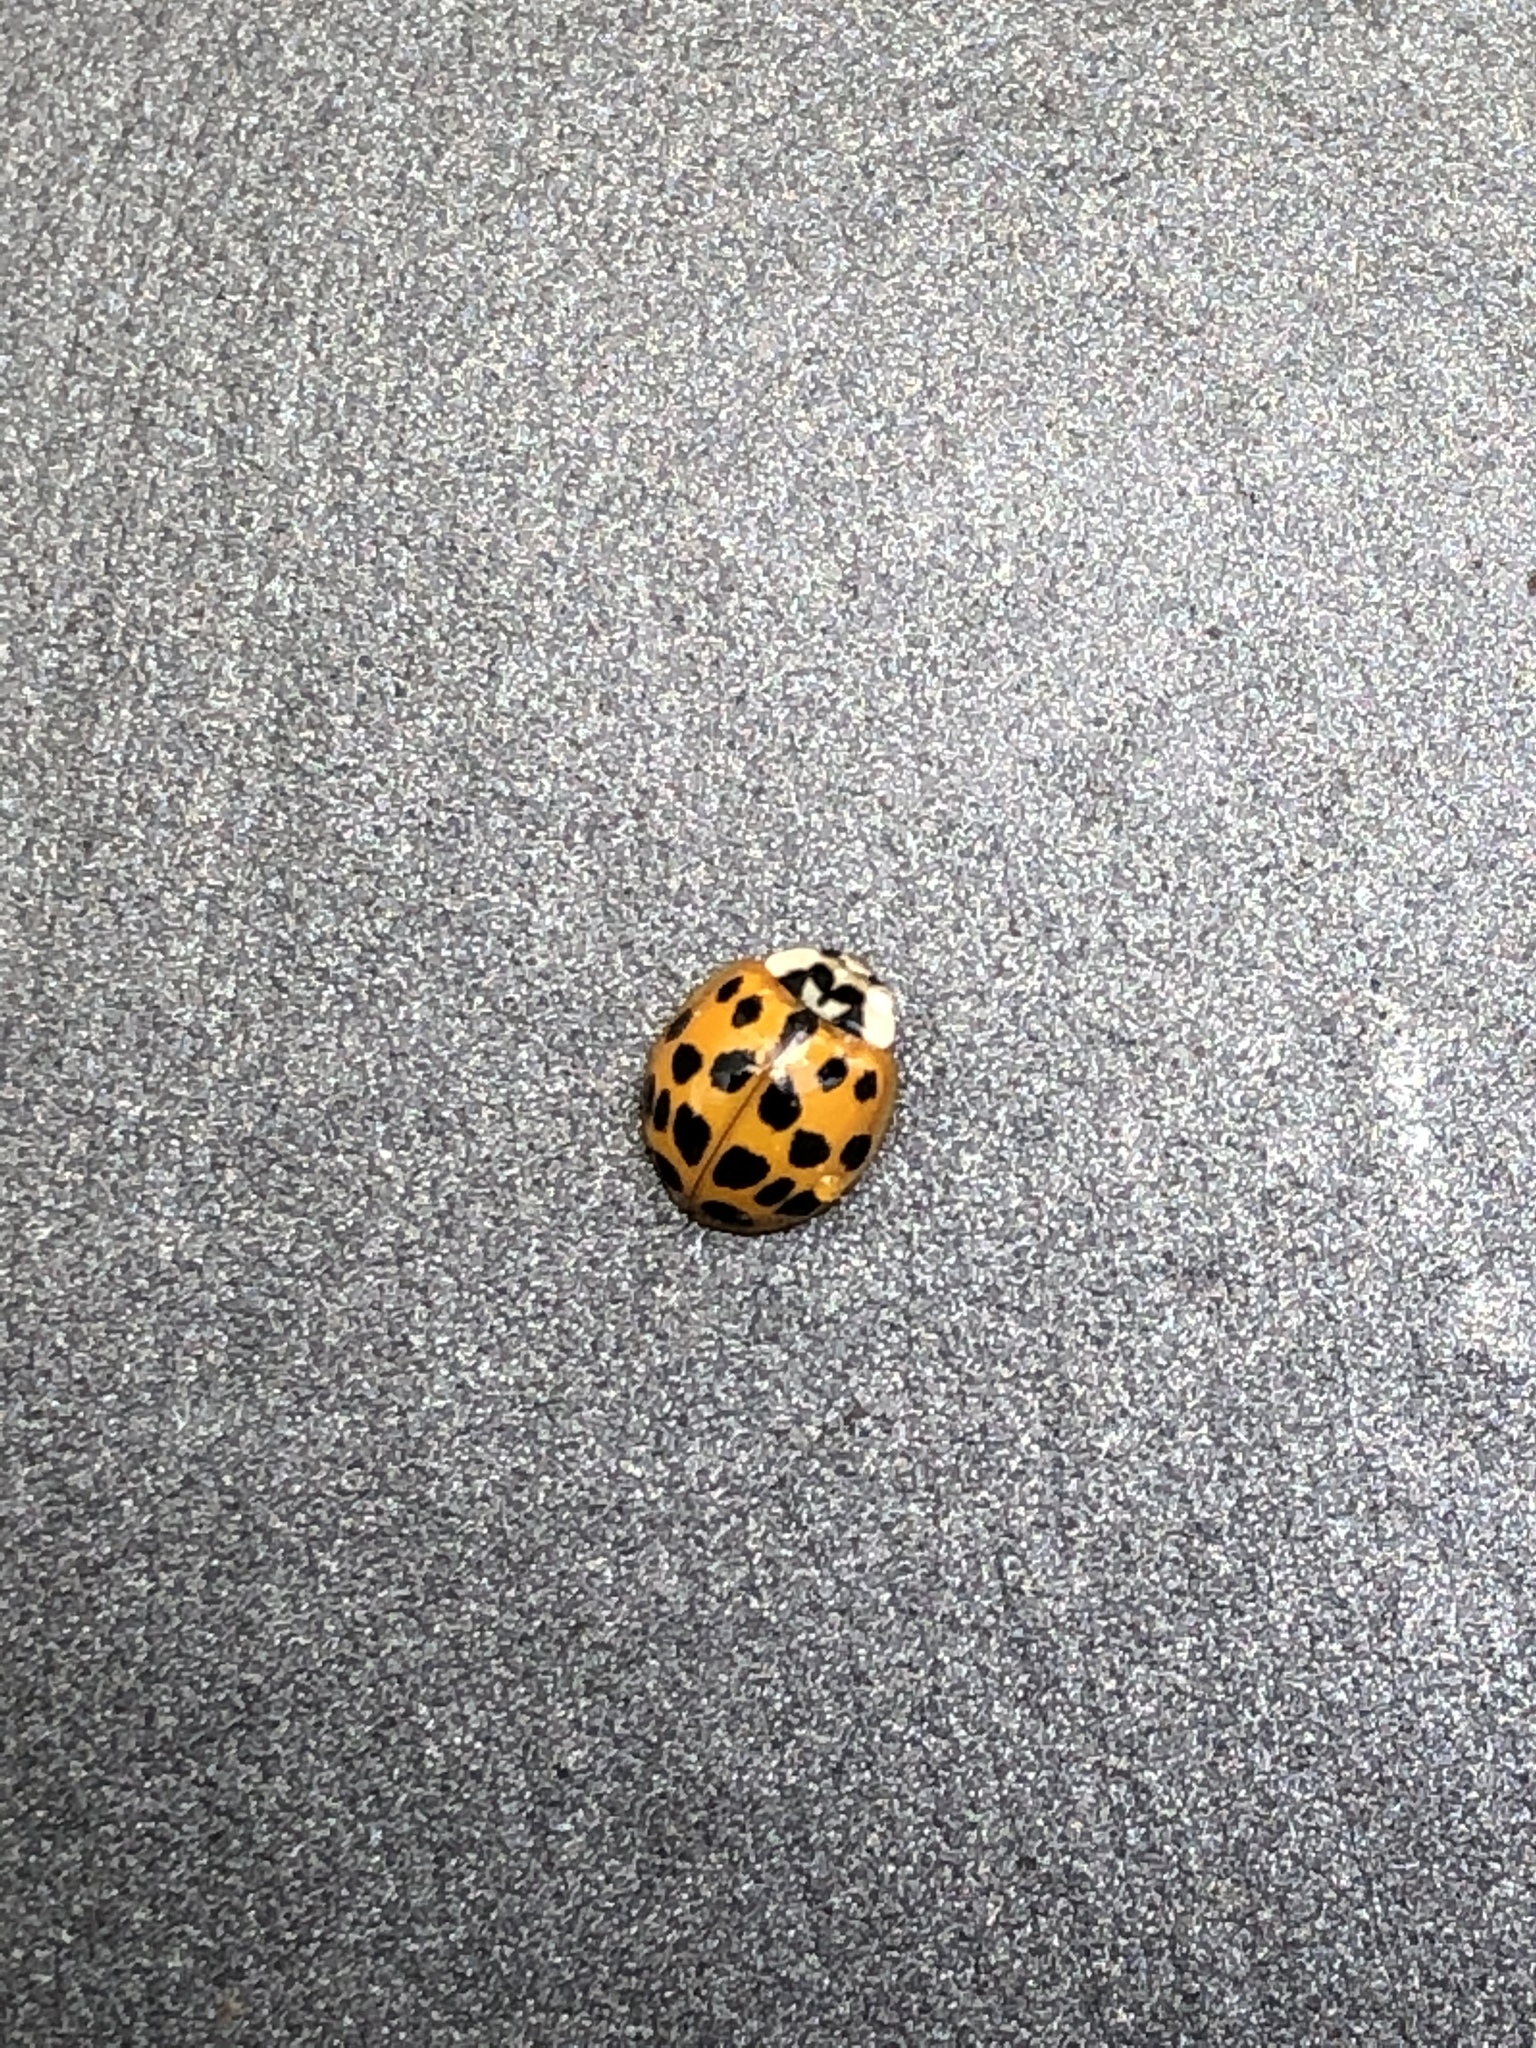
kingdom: Animalia
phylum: Arthropoda
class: Insecta
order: Coleoptera
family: Coccinellidae
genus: Harmonia
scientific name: Harmonia axyridis
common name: Harlequin ladybird
